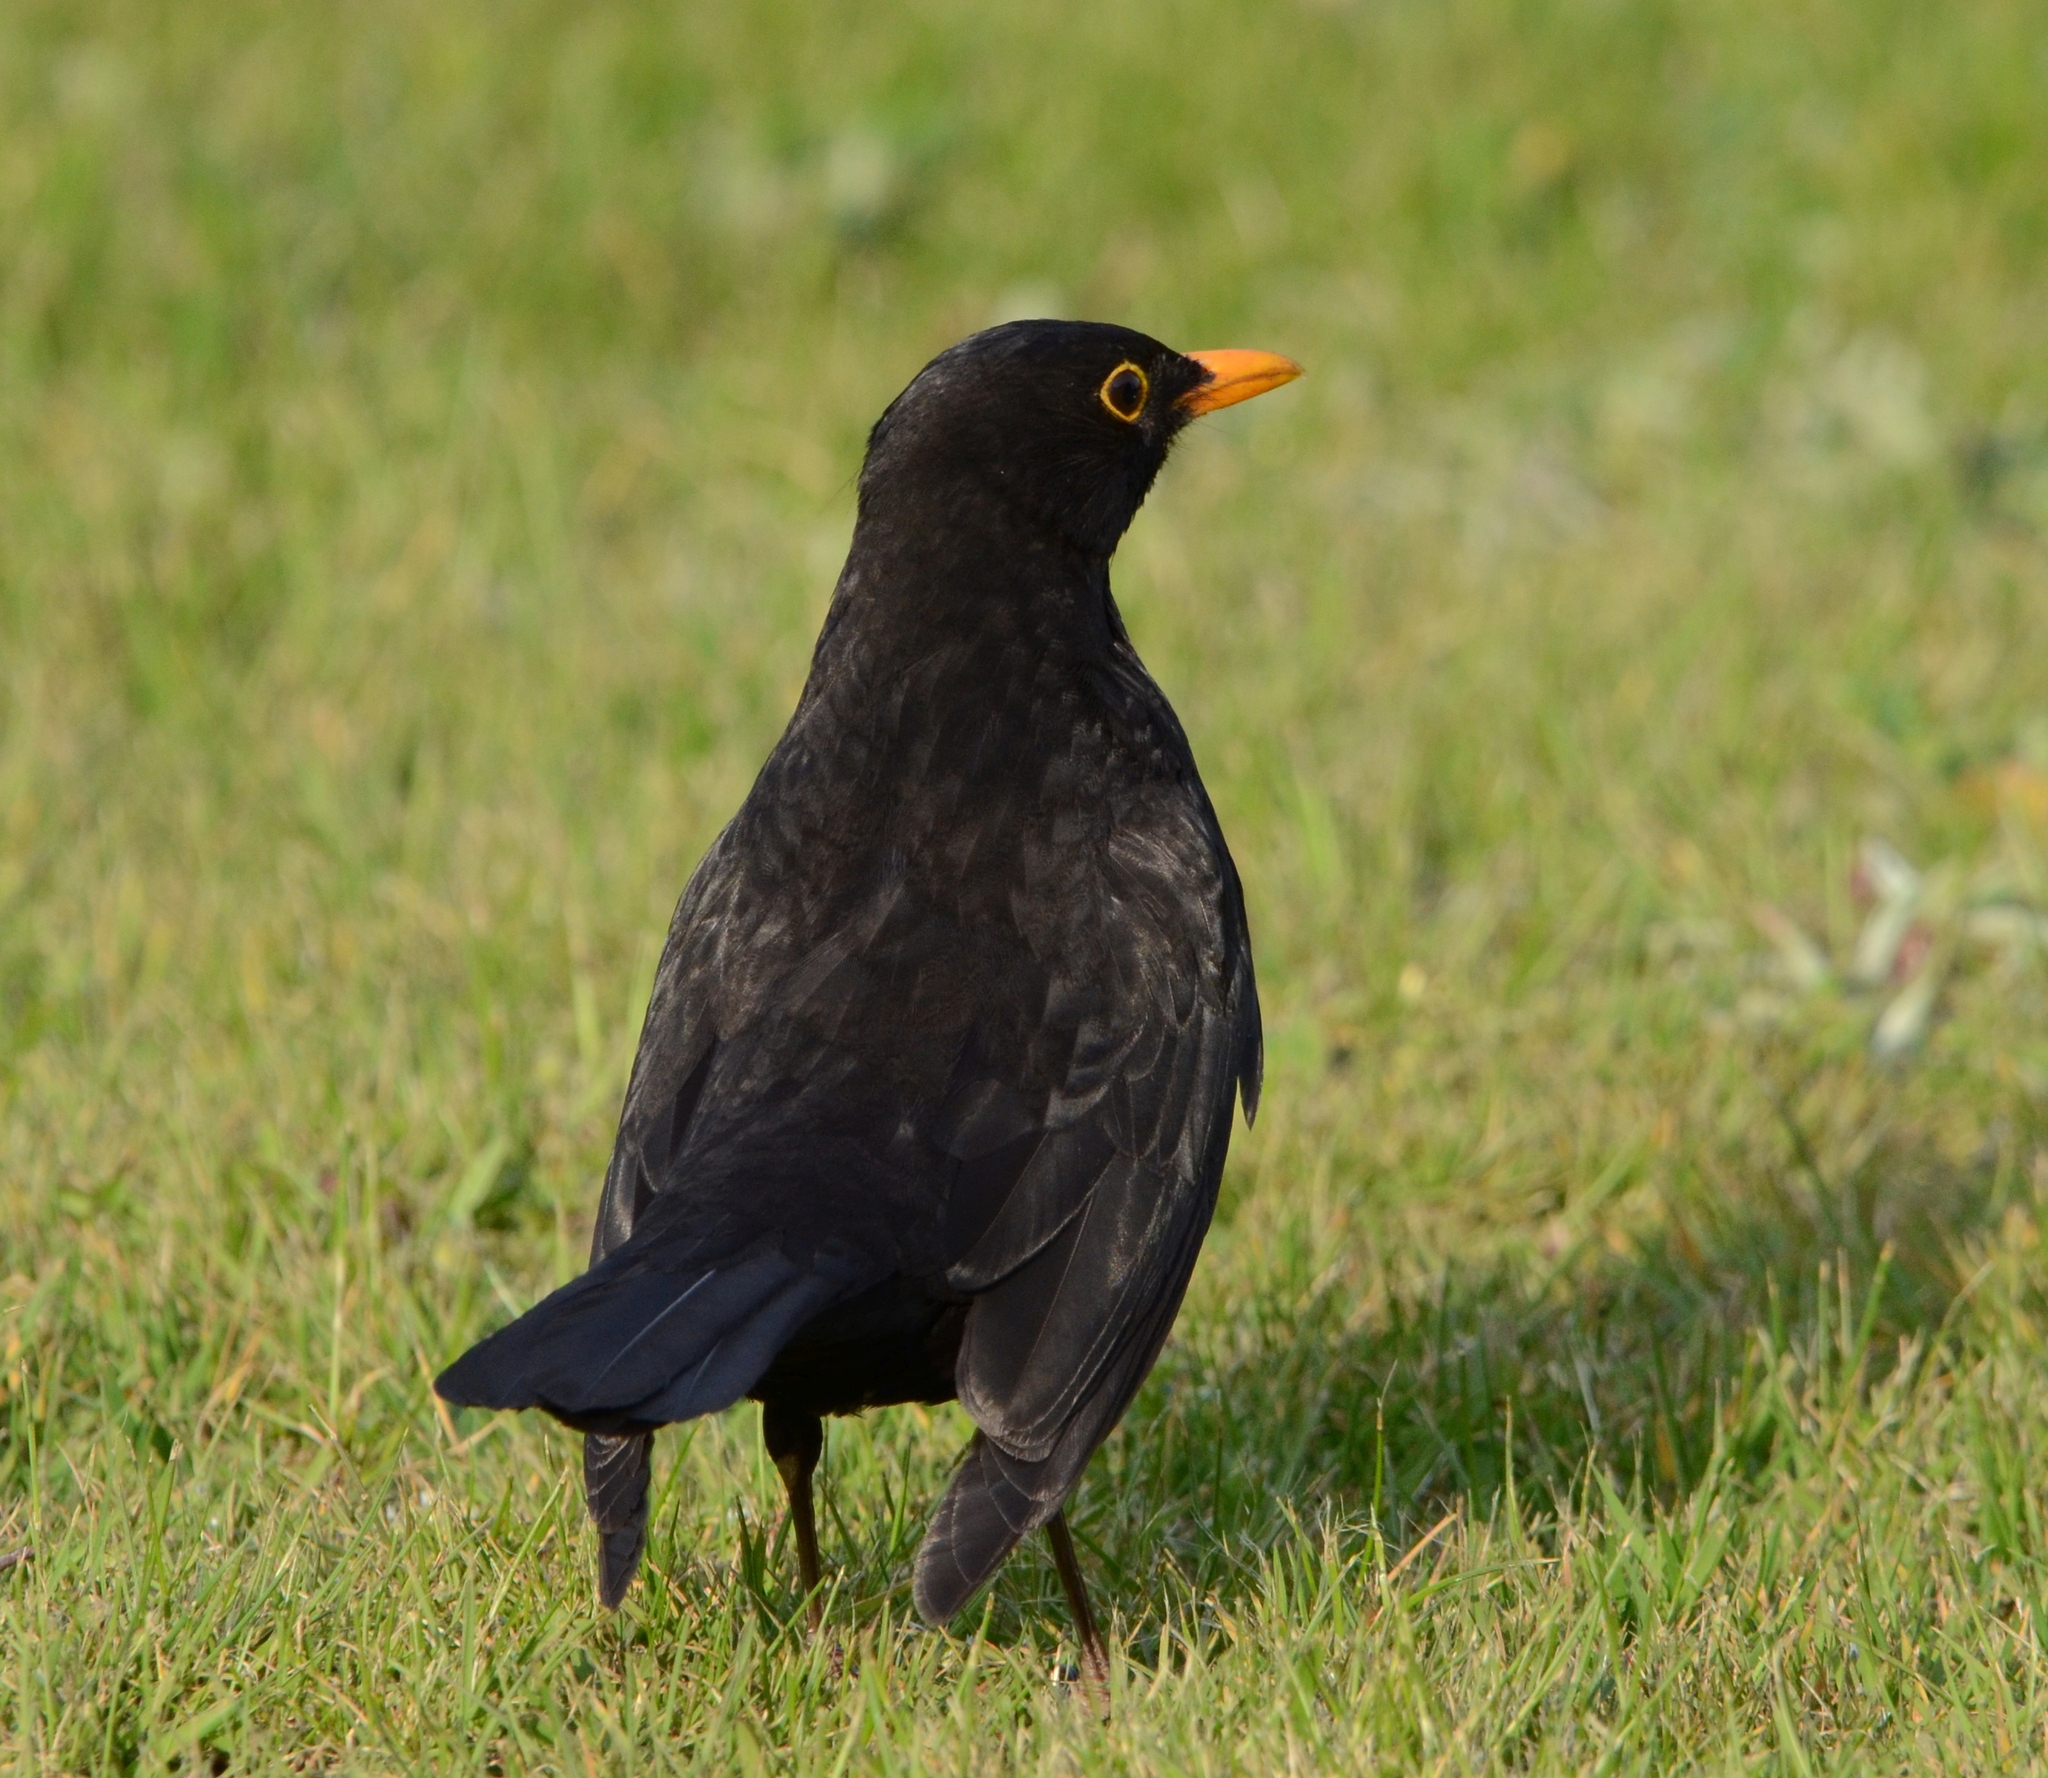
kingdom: Animalia
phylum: Chordata
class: Aves
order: Passeriformes
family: Turdidae
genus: Turdus
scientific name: Turdus merula
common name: Common blackbird
